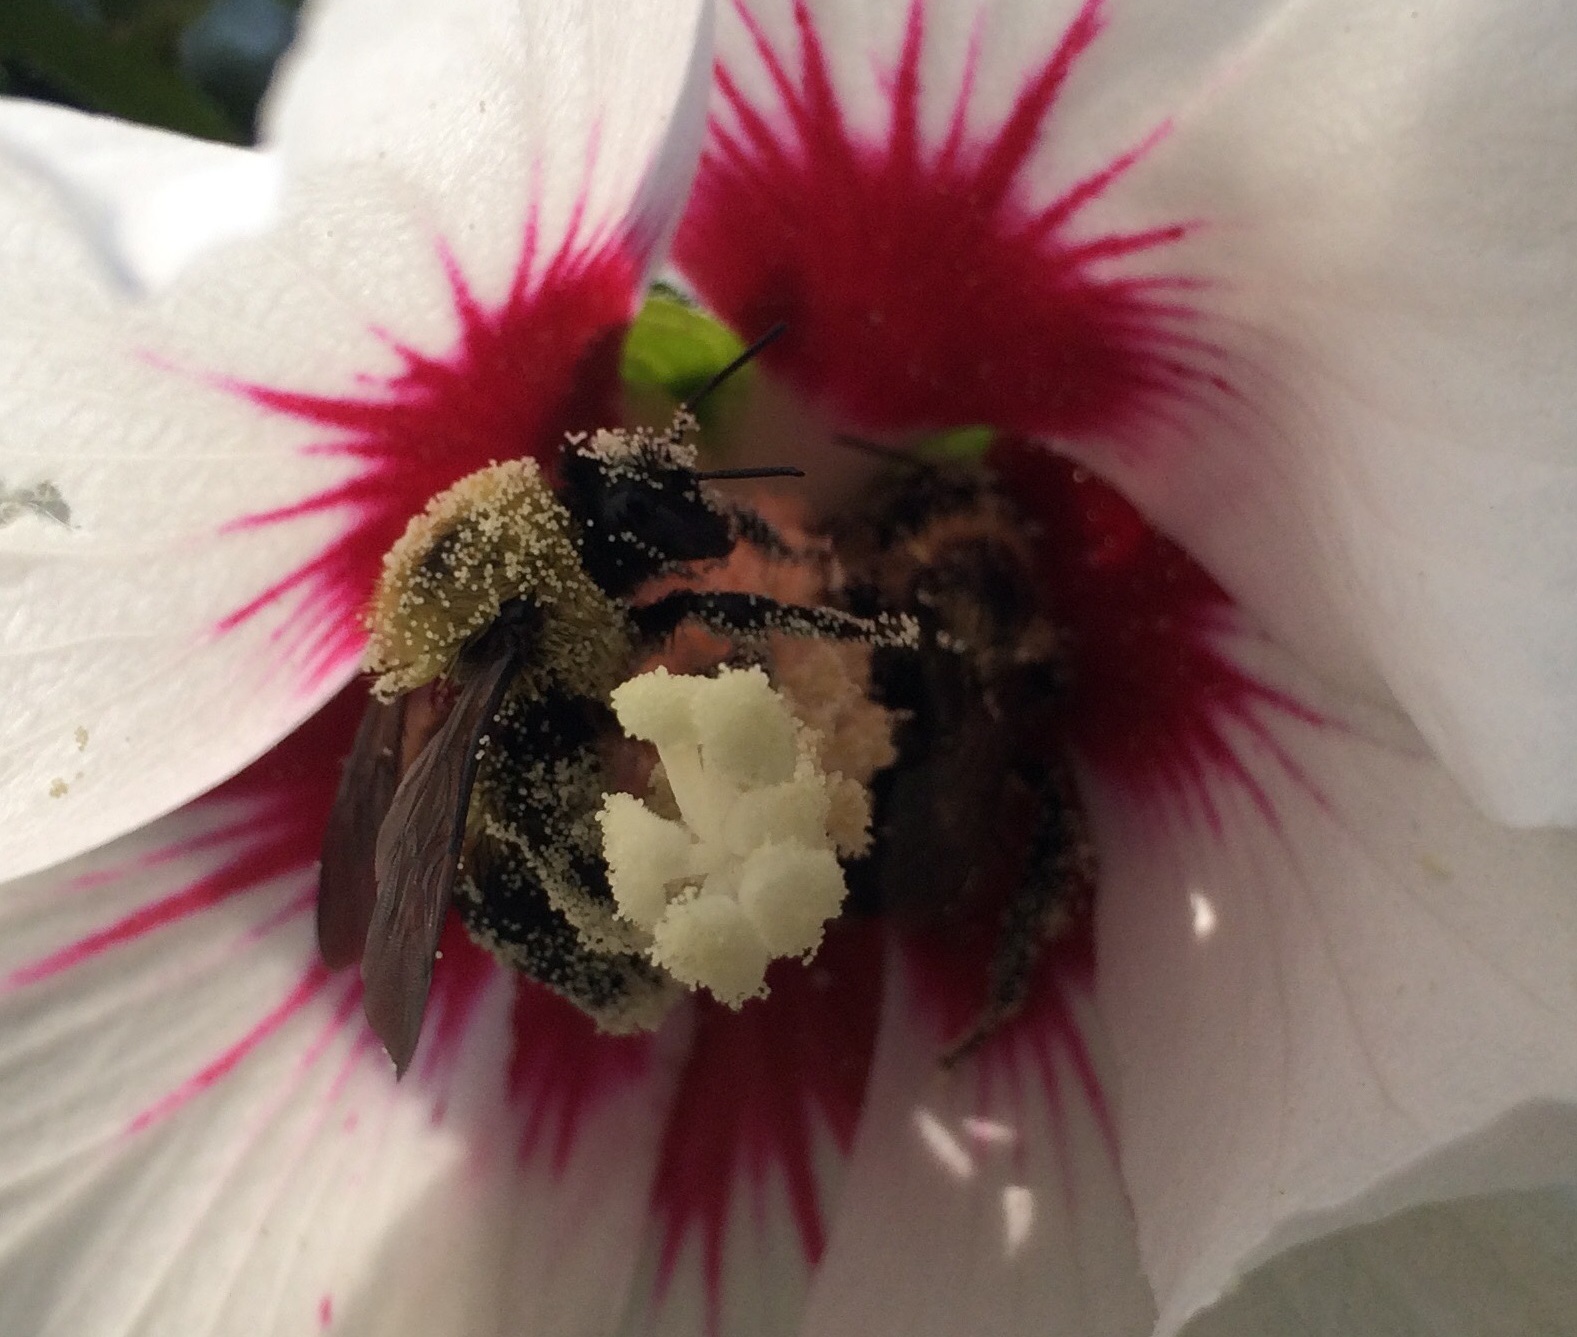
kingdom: Animalia
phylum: Arthropoda
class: Insecta
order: Hymenoptera
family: Apidae
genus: Bombus
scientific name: Bombus griseocollis
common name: Brown-belted bumble bee
